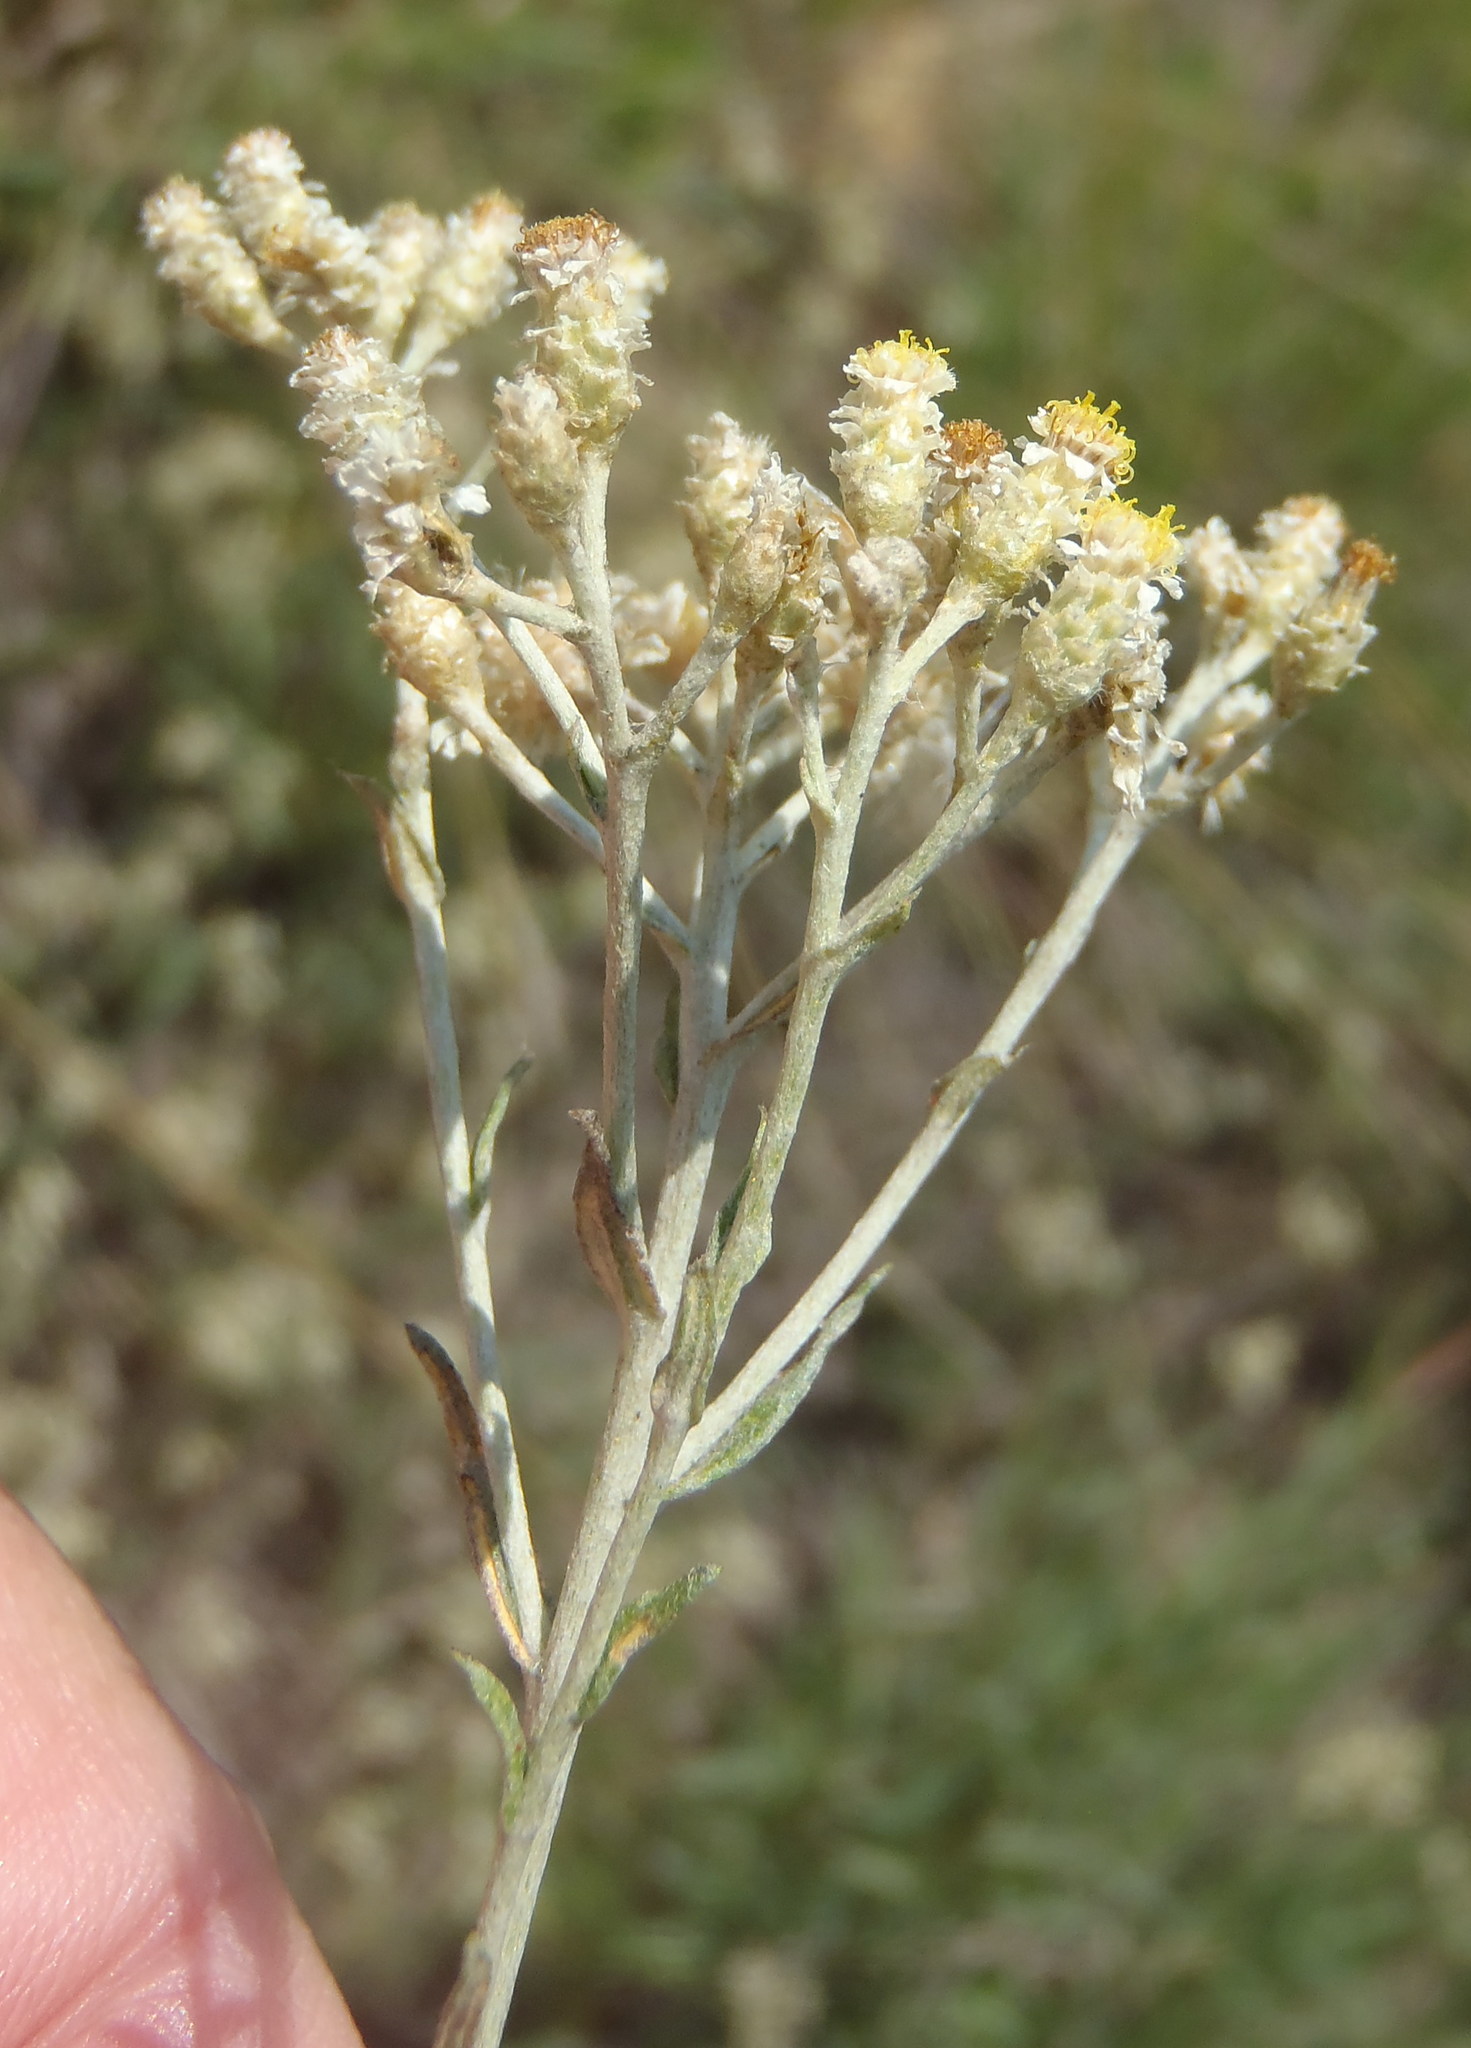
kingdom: Plantae
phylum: Tracheophyta
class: Magnoliopsida
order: Asterales
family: Asteraceae
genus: Helichrysum
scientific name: Helichrysum rugulosum
